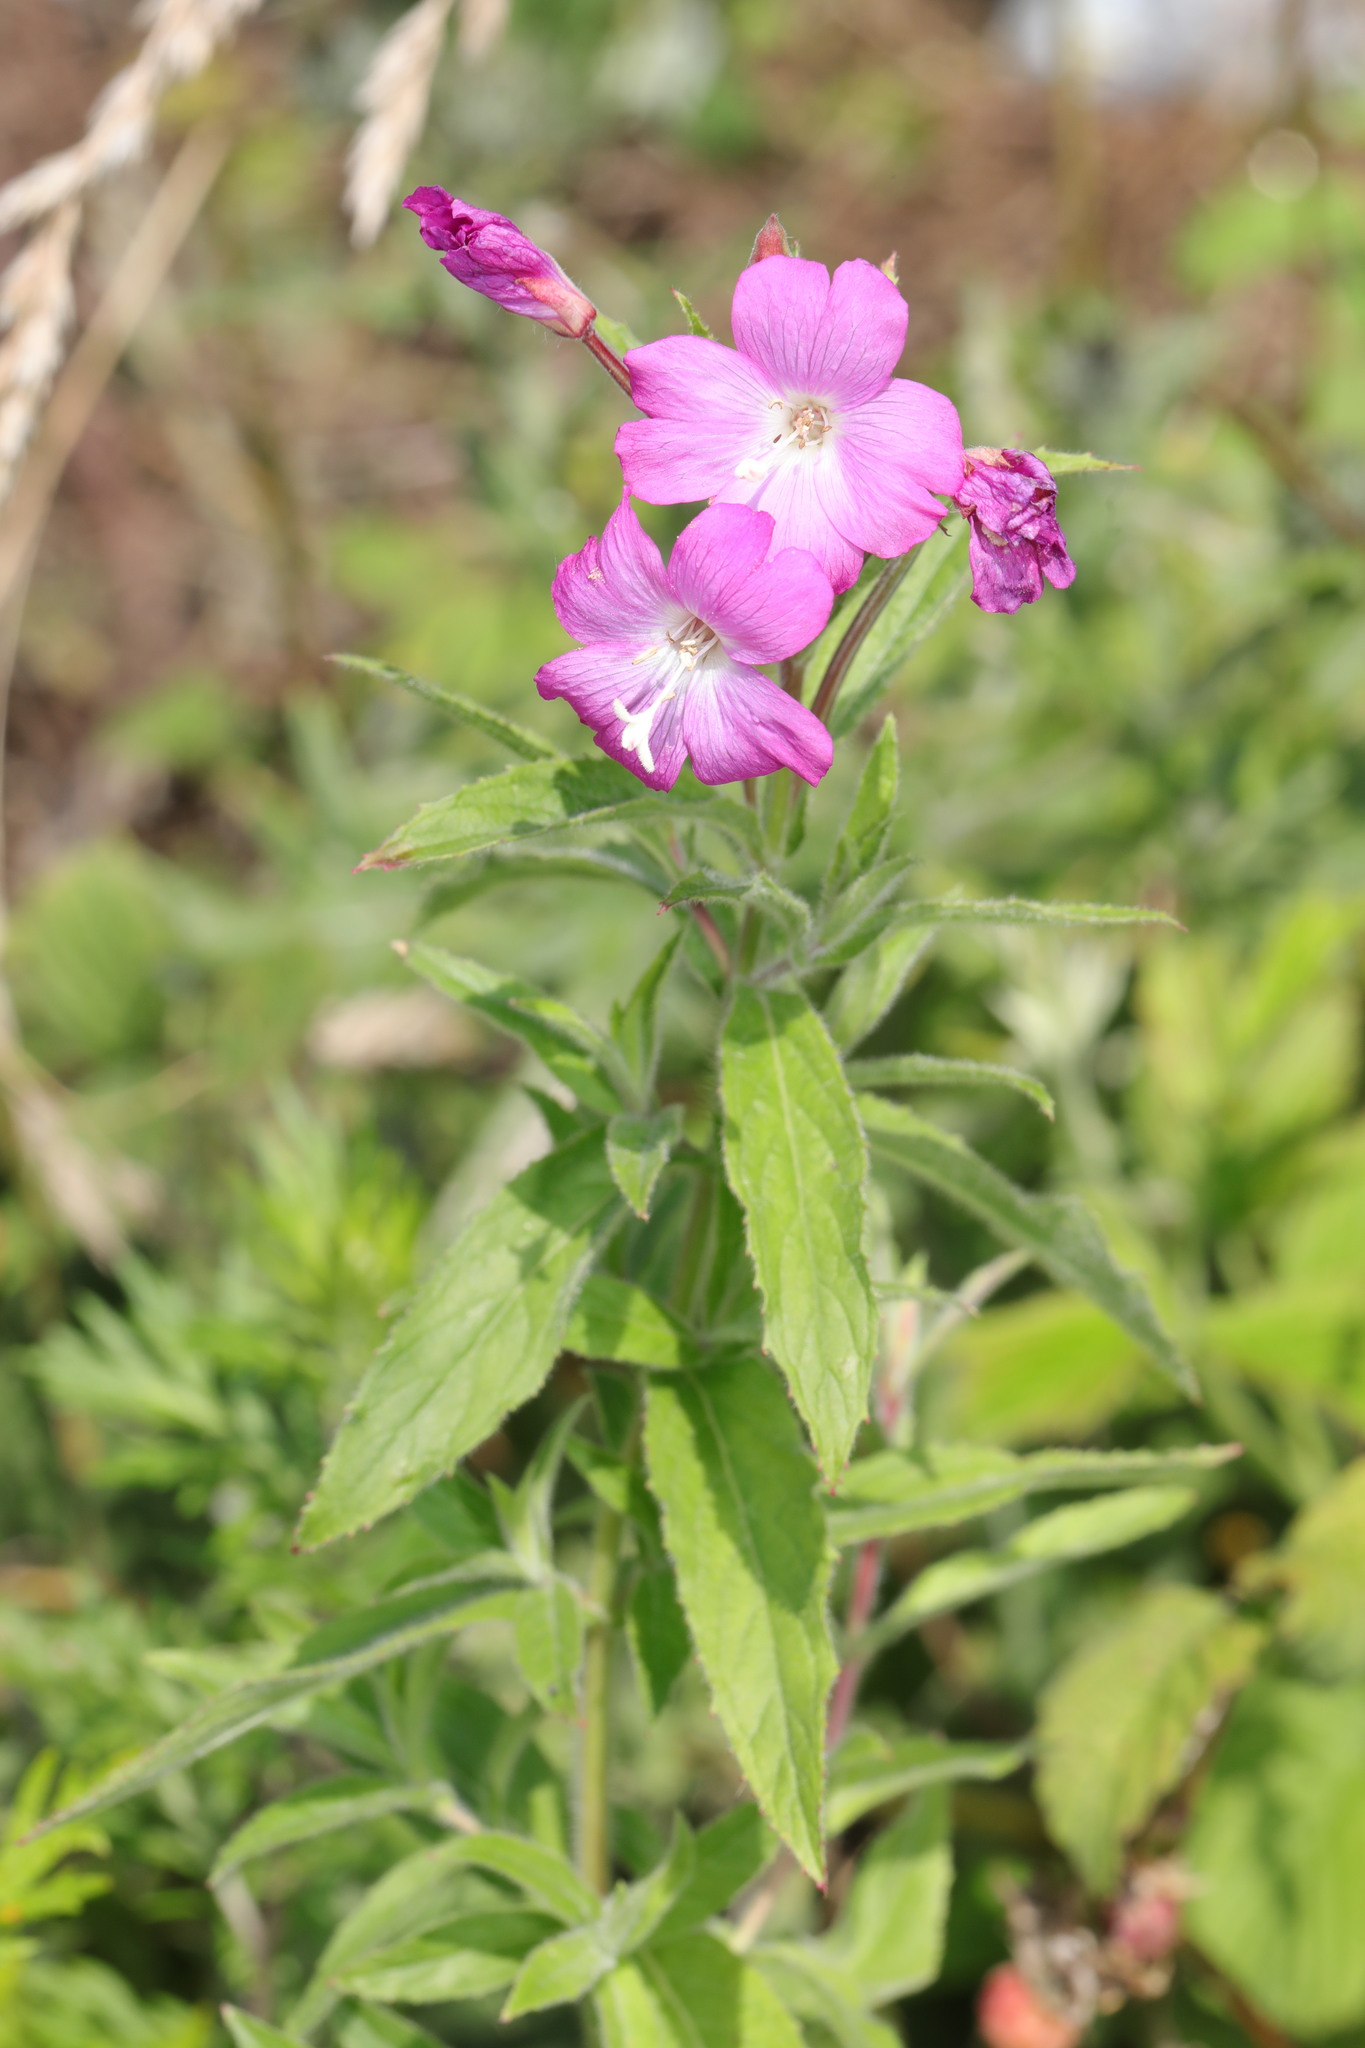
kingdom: Plantae
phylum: Tracheophyta
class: Magnoliopsida
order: Myrtales
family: Onagraceae
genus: Epilobium
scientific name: Epilobium hirsutum
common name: Great willowherb
